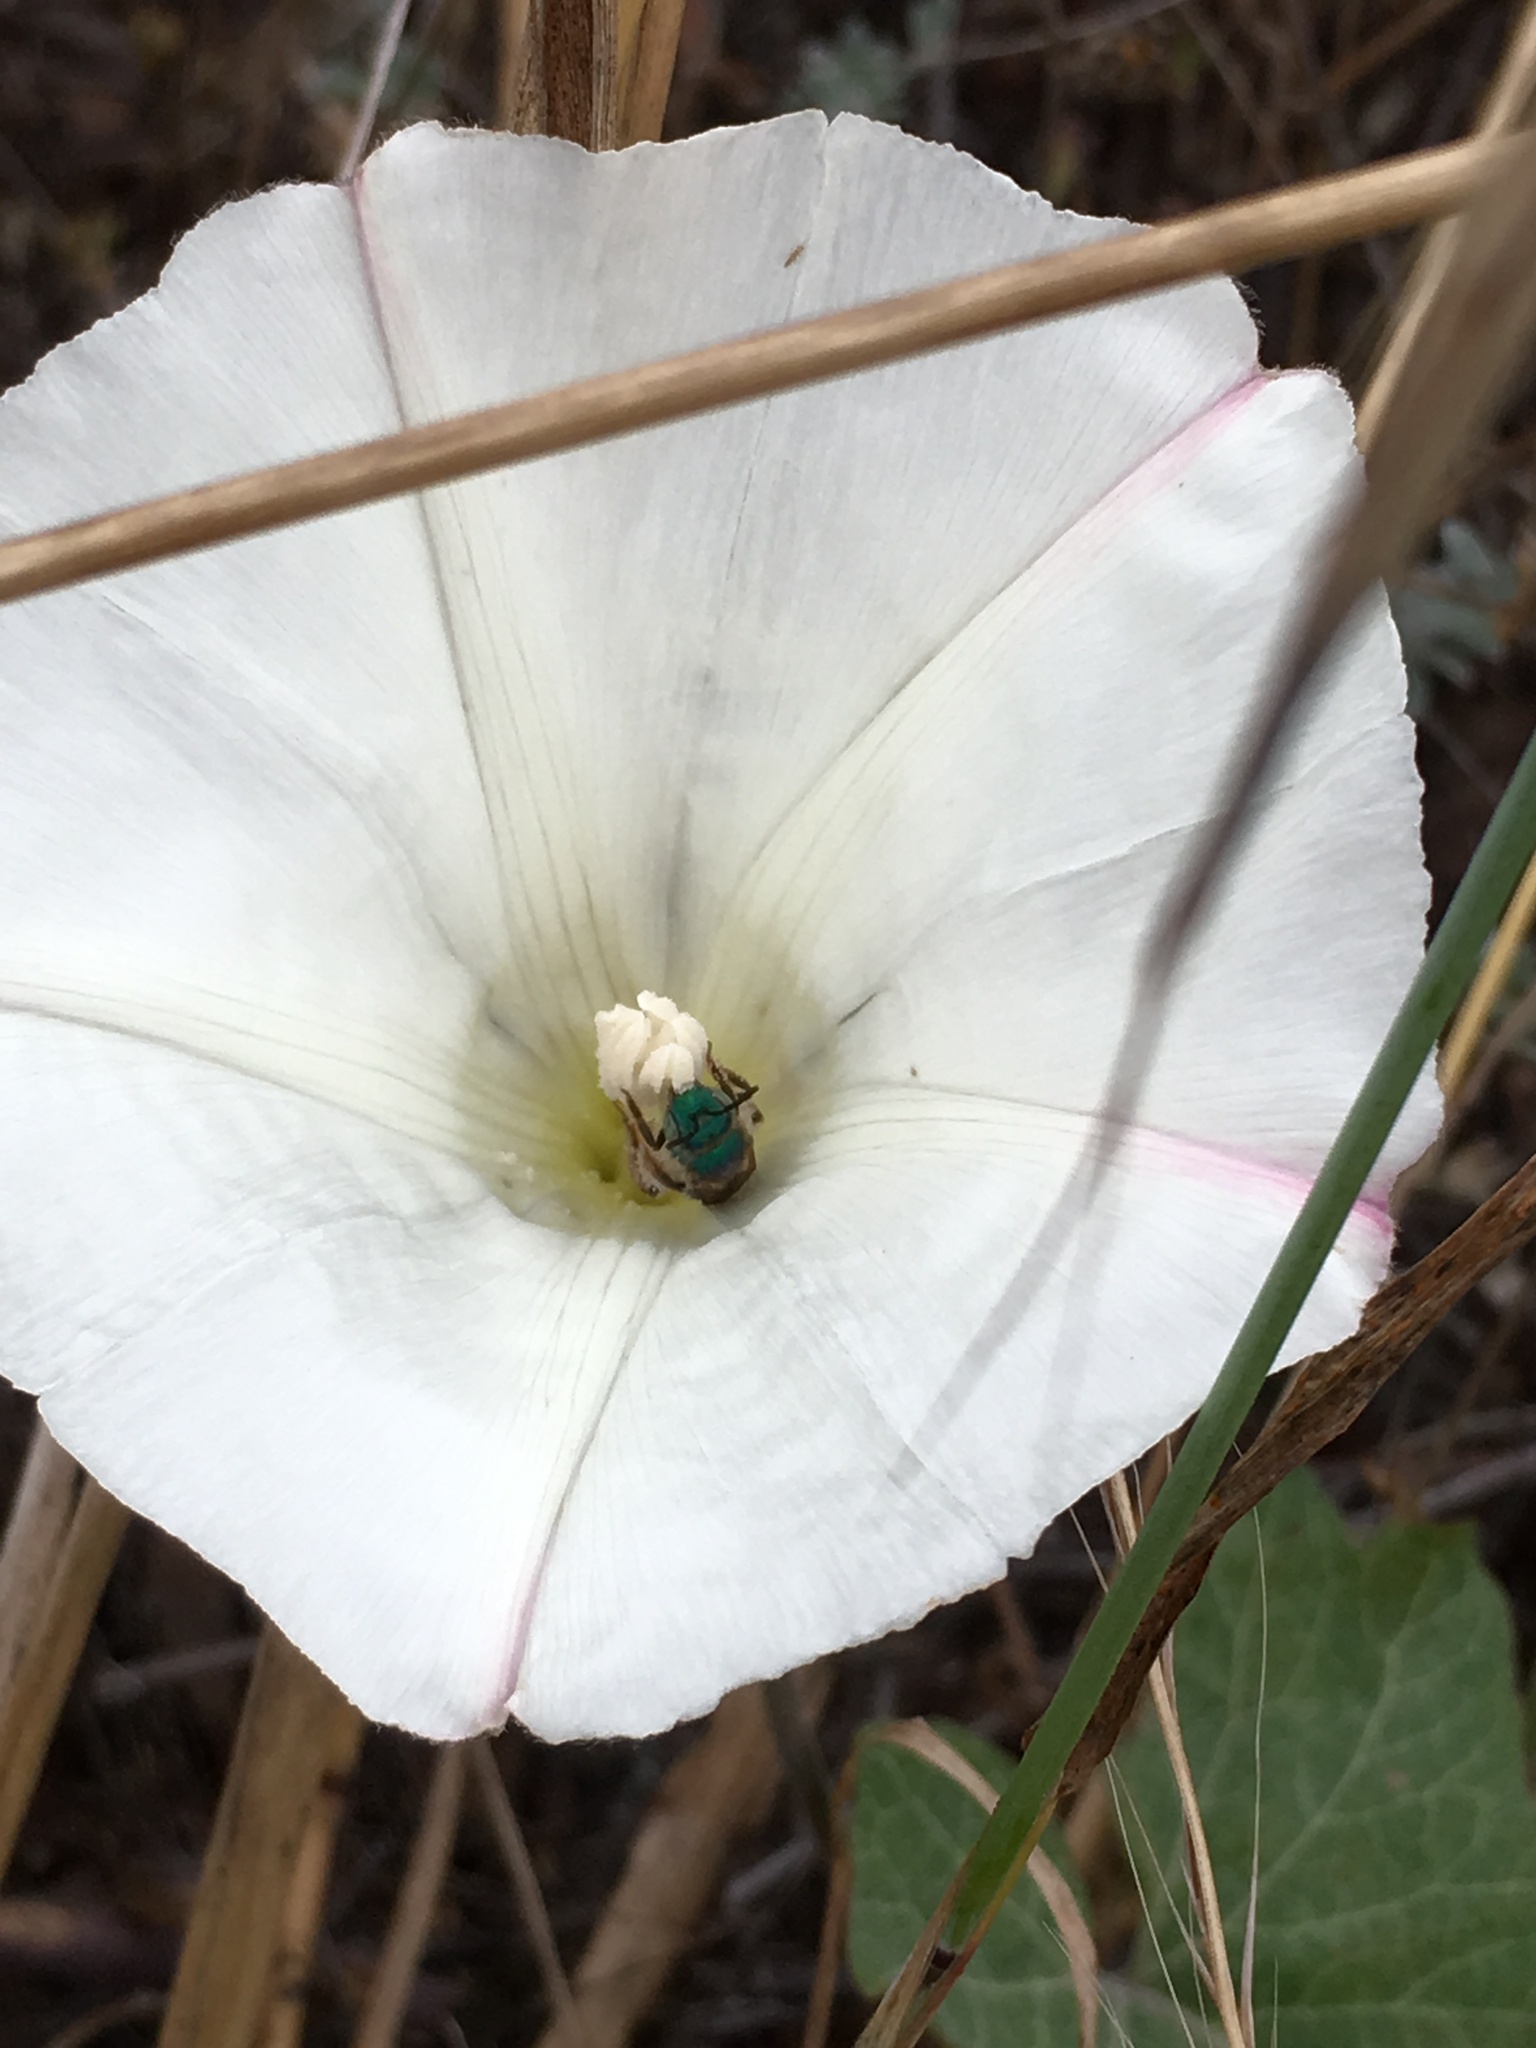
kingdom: Plantae
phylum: Tracheophyta
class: Magnoliopsida
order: Solanales
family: Convolvulaceae
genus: Calystegia
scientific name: Calystegia macrostegia
